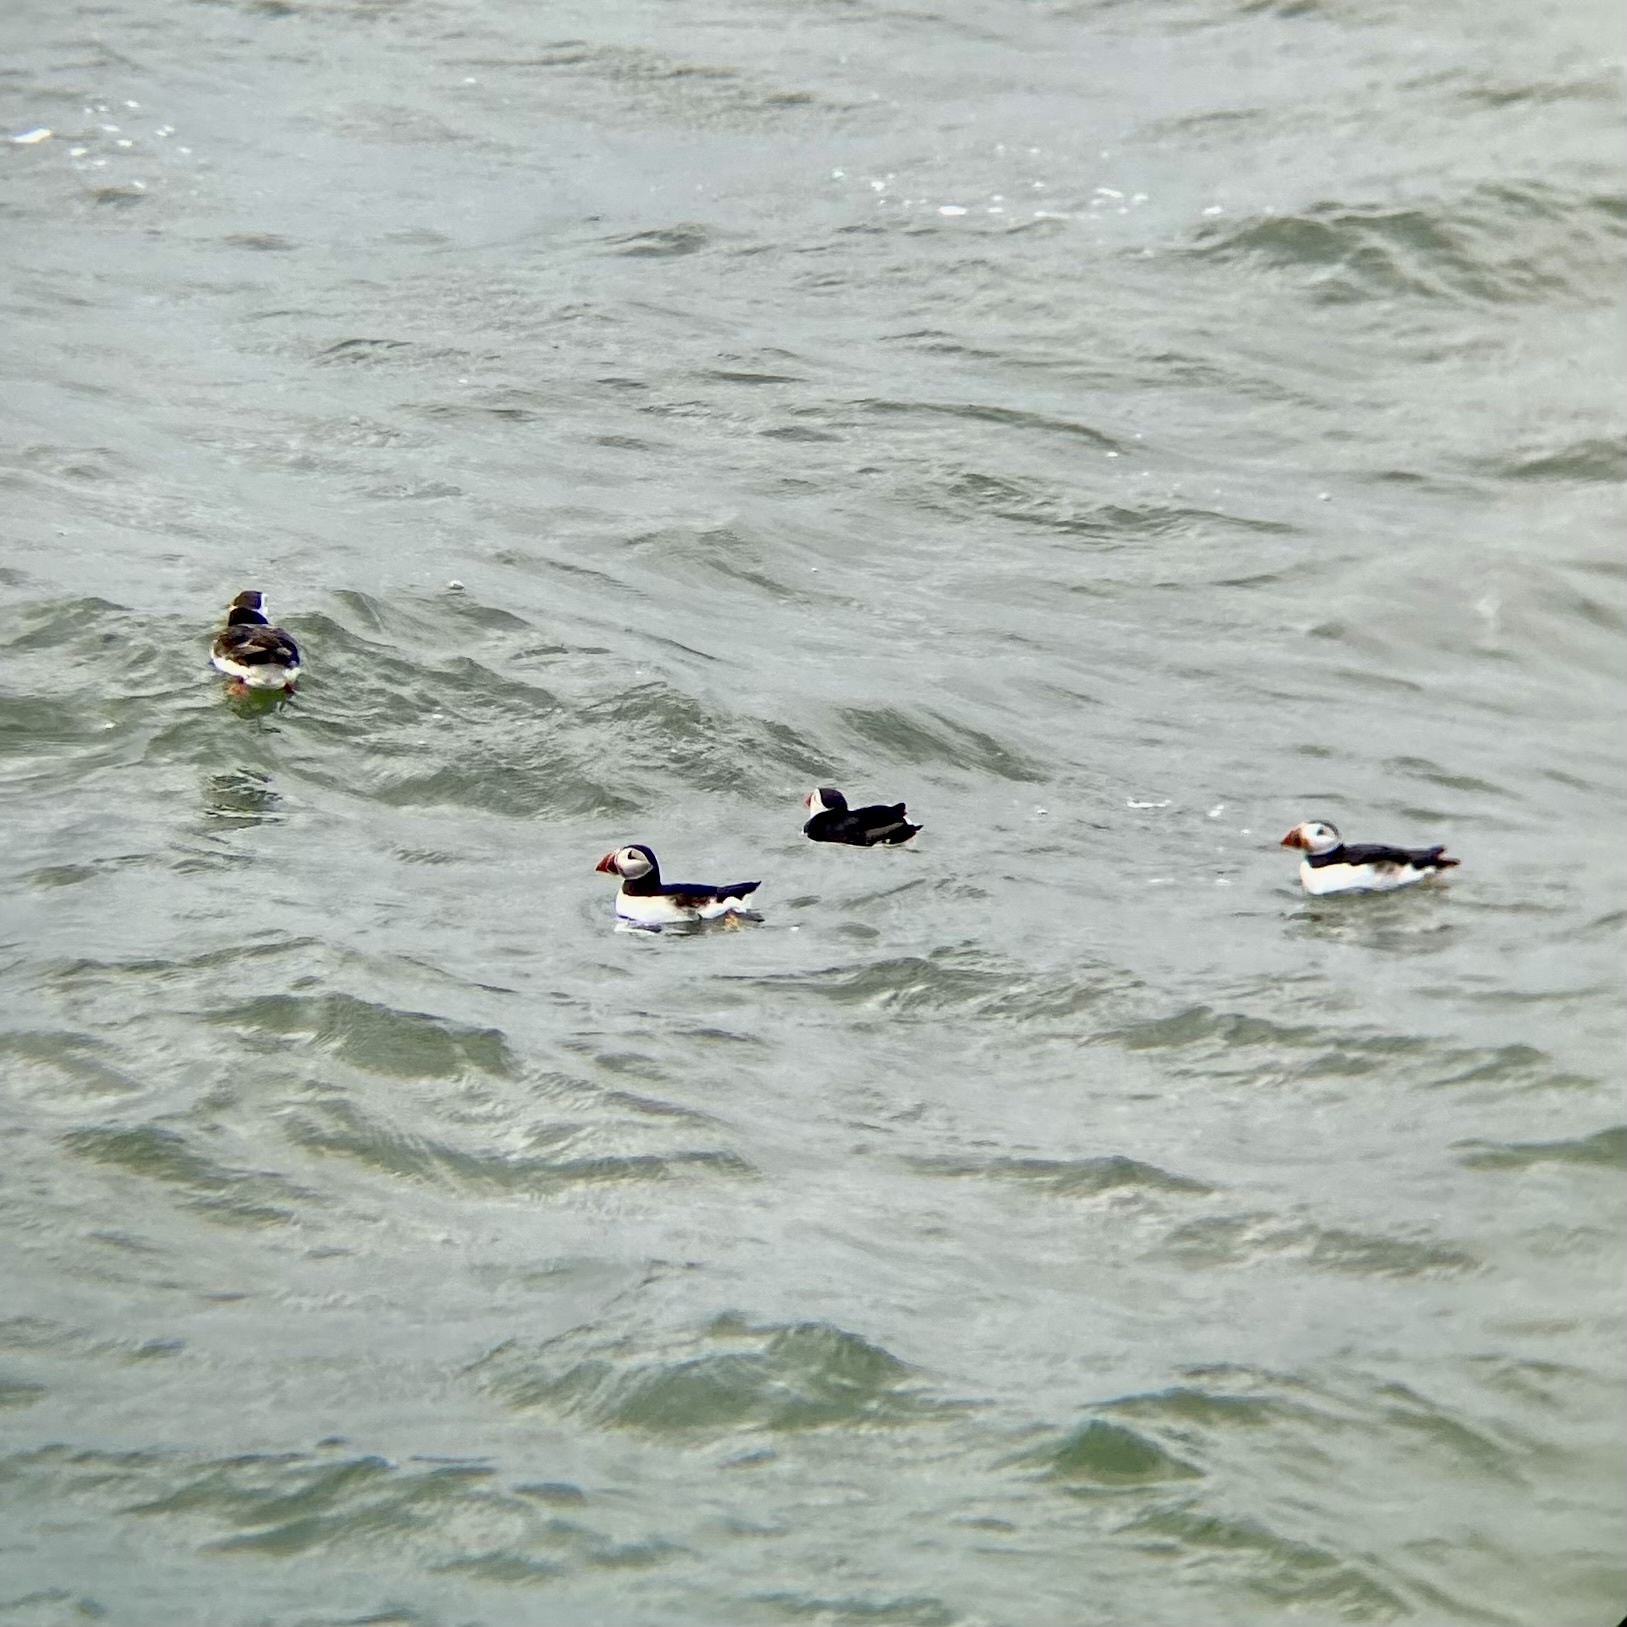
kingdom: Animalia
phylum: Chordata
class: Aves
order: Charadriiformes
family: Alcidae
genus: Fratercula
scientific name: Fratercula arctica
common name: Atlantic puffin
